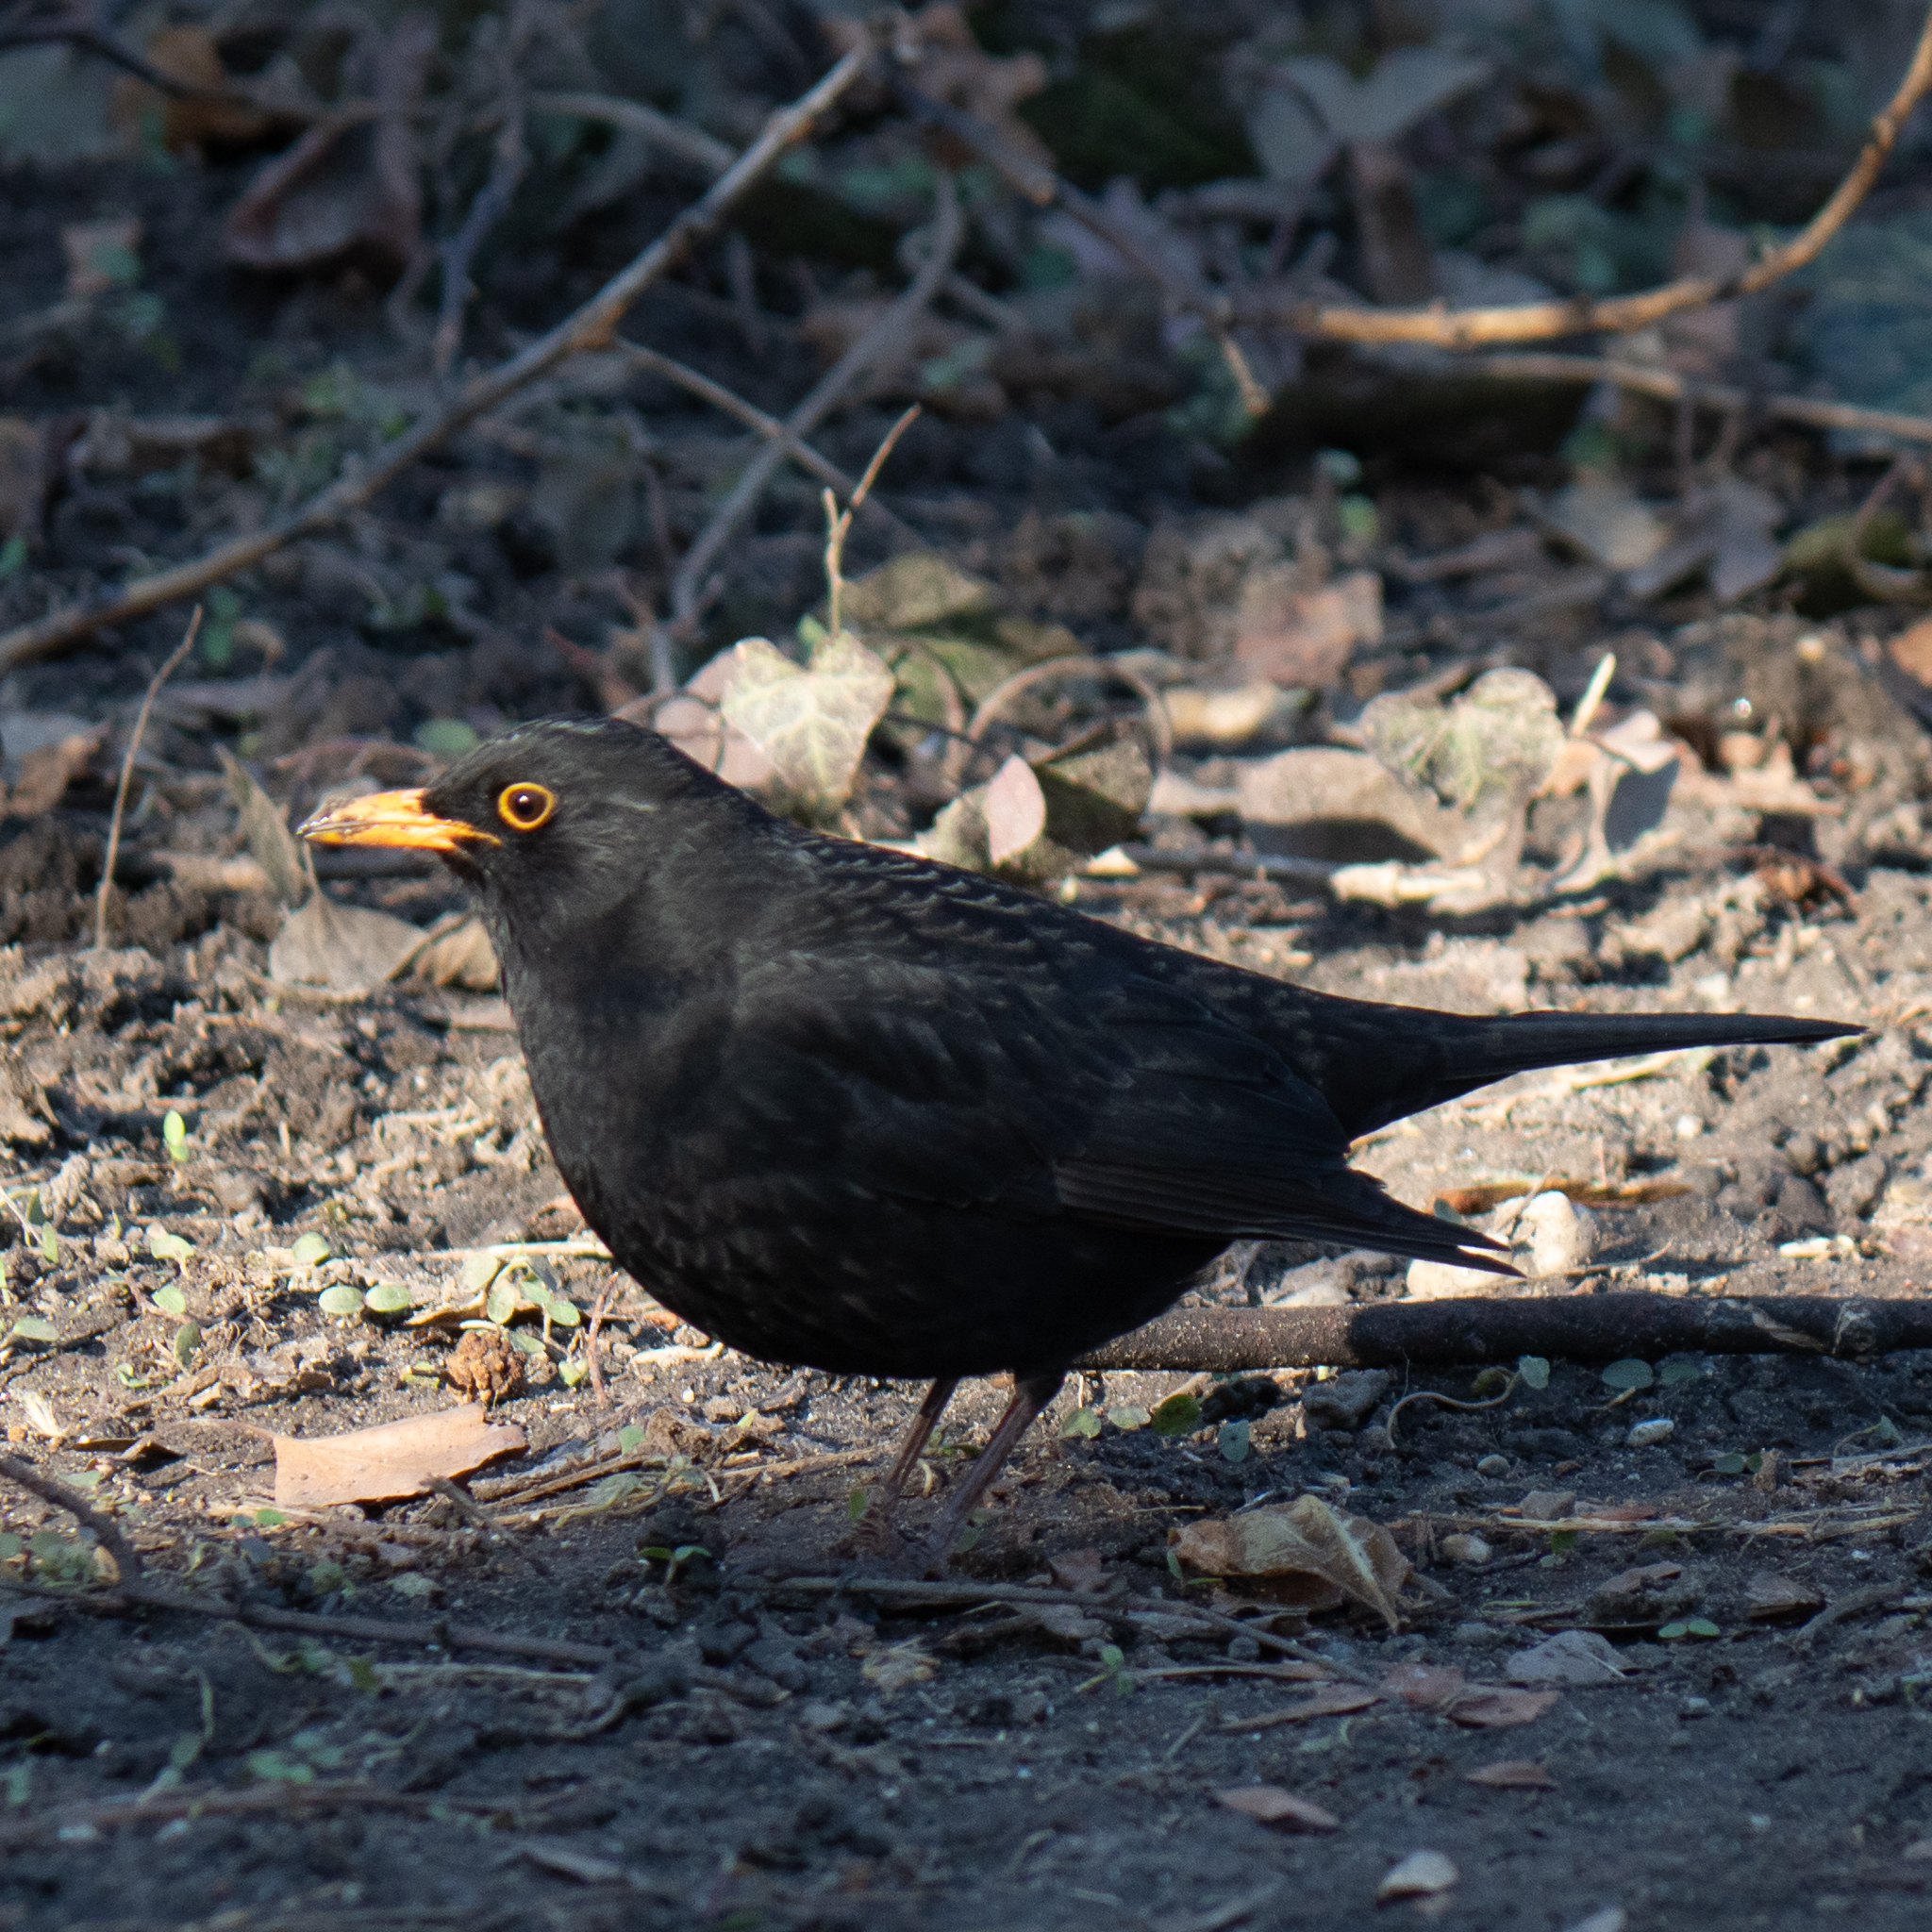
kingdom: Animalia
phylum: Chordata
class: Aves
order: Passeriformes
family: Turdidae
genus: Turdus
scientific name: Turdus merula
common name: Common blackbird
